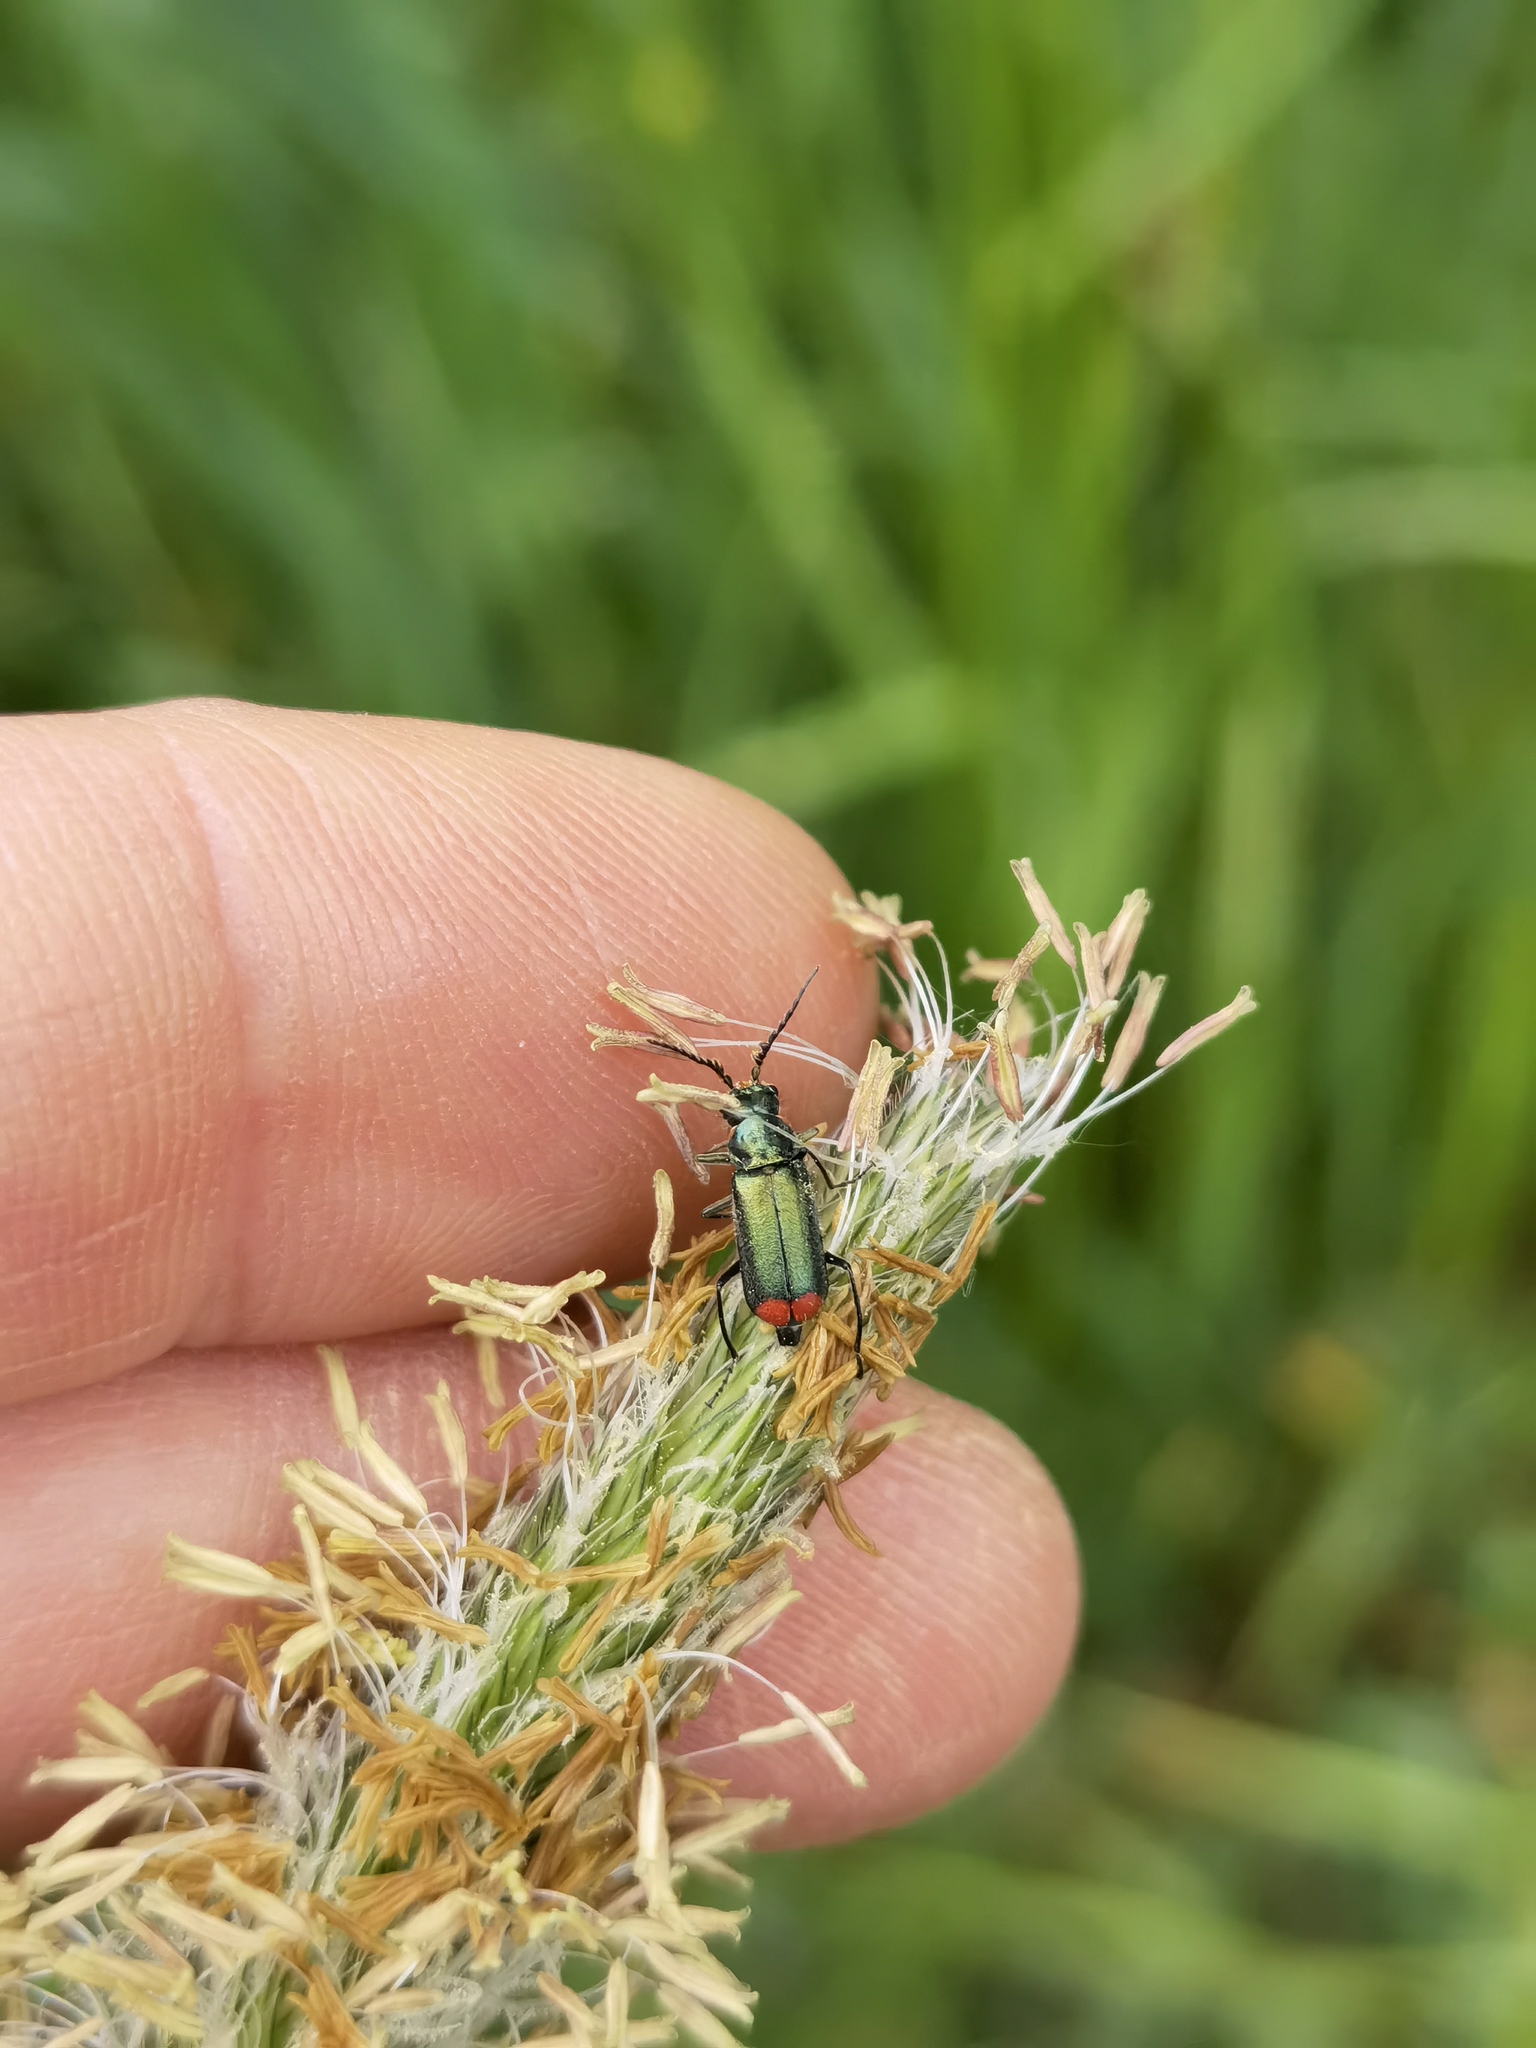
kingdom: Animalia
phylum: Arthropoda
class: Insecta
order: Coleoptera
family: Melyridae
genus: Malachius
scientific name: Malachius bipustulatus
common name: Malachite beetle
